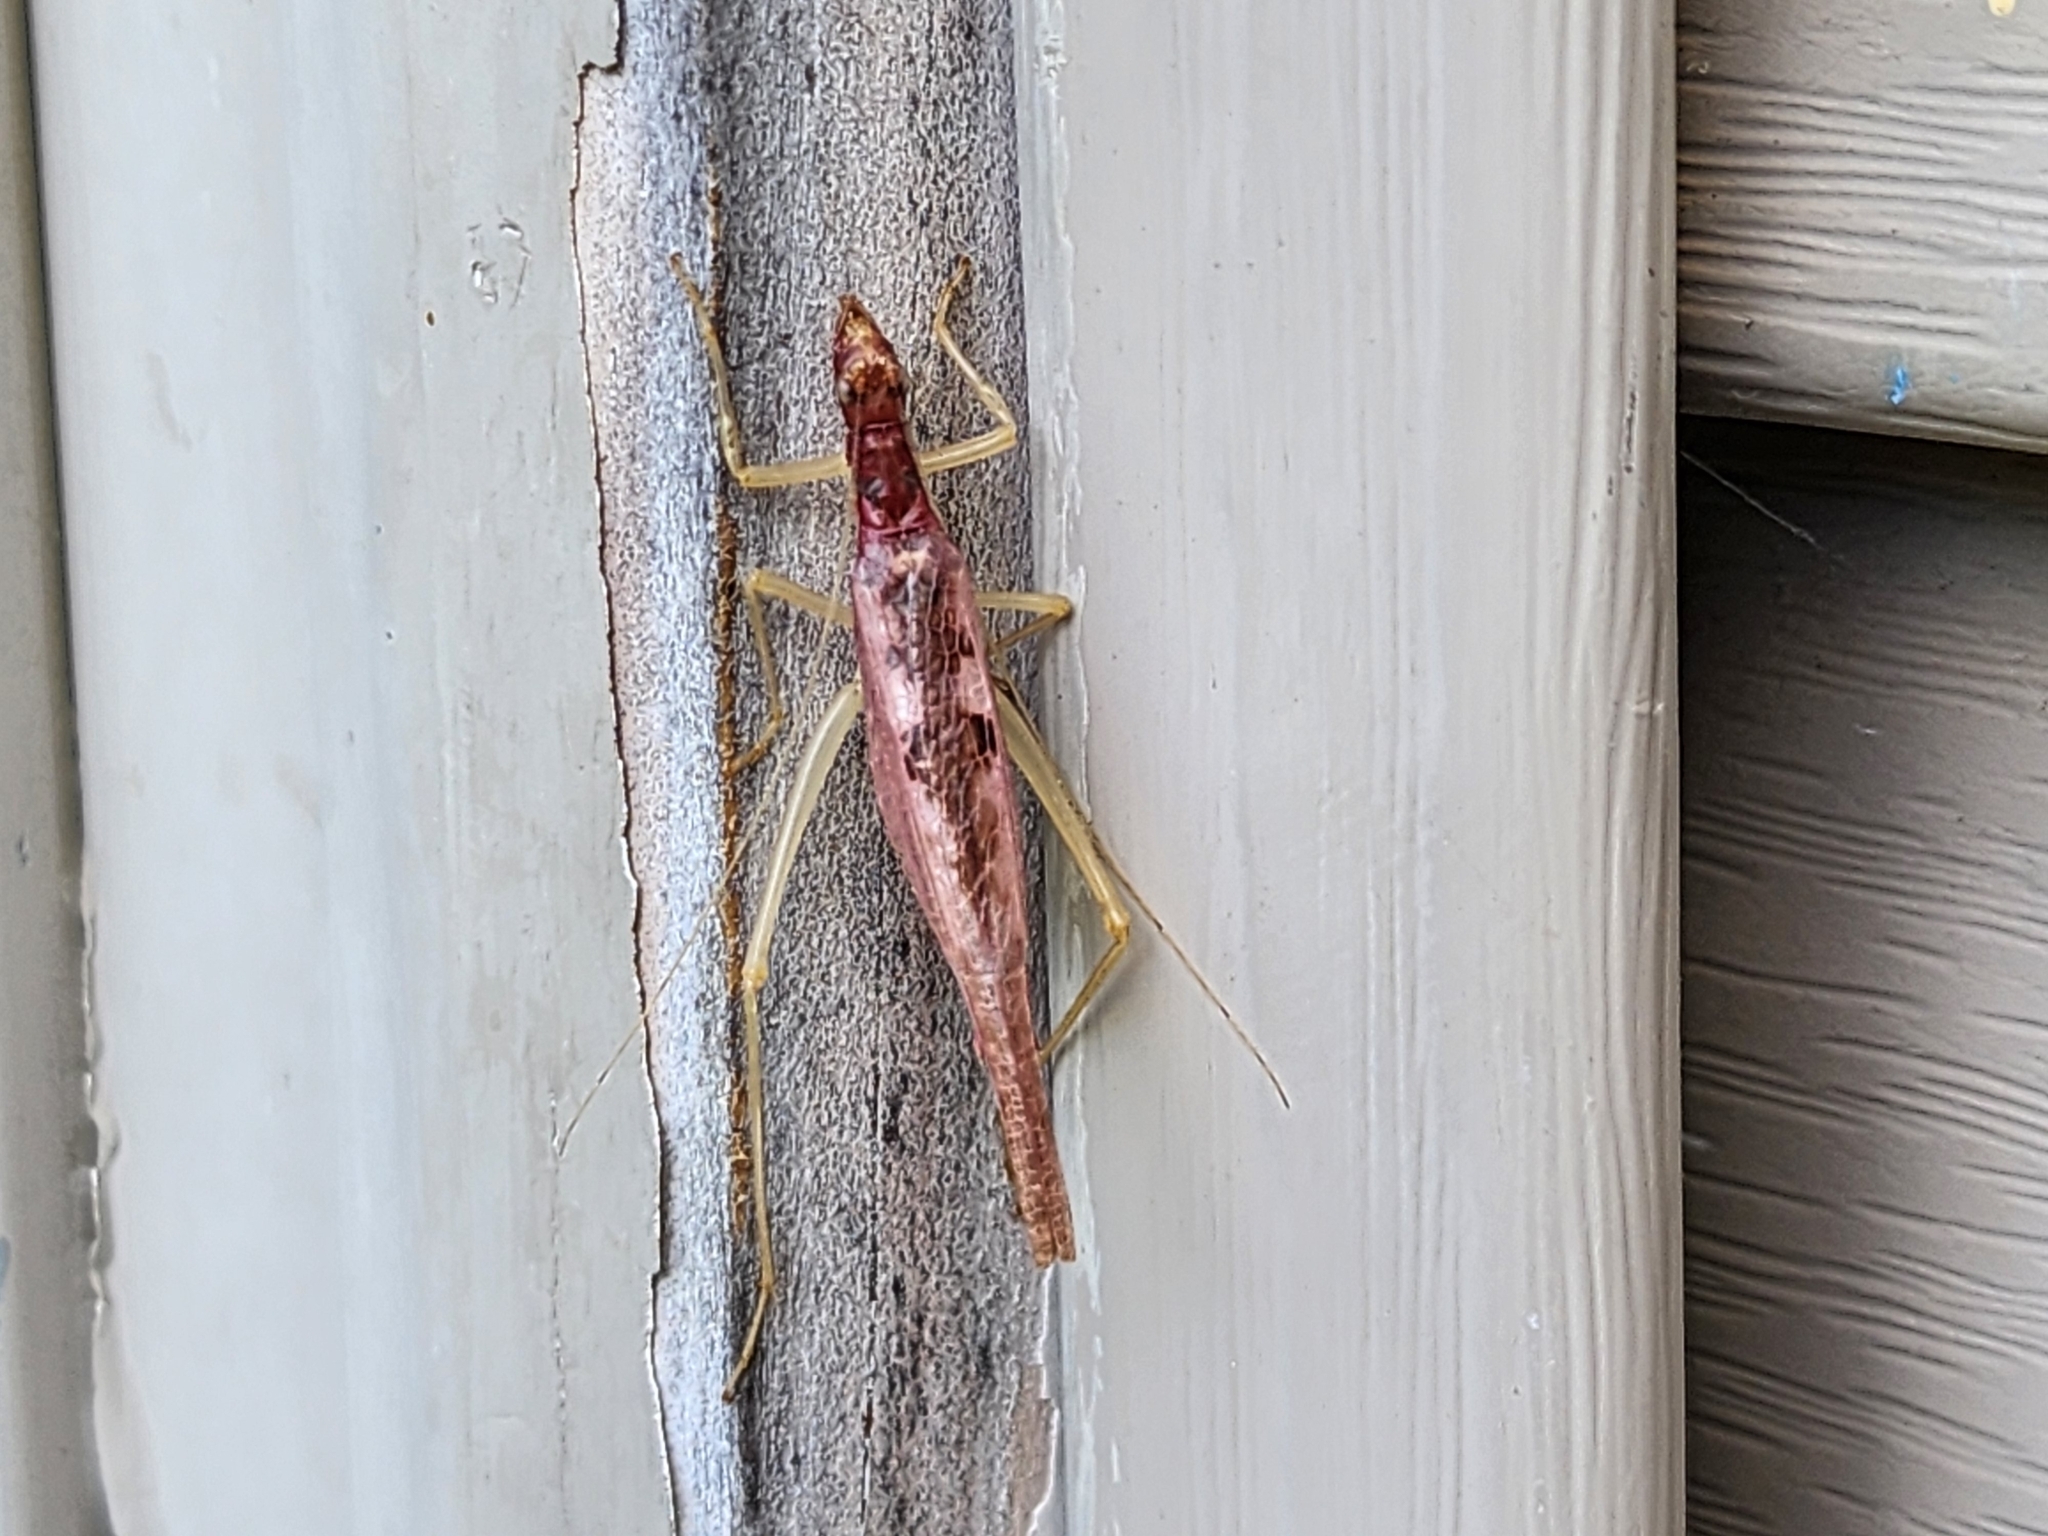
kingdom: Animalia
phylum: Arthropoda
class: Insecta
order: Orthoptera
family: Gryllidae
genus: Neoxabea
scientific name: Neoxabea bipunctata
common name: Two-spotted tree cricket
